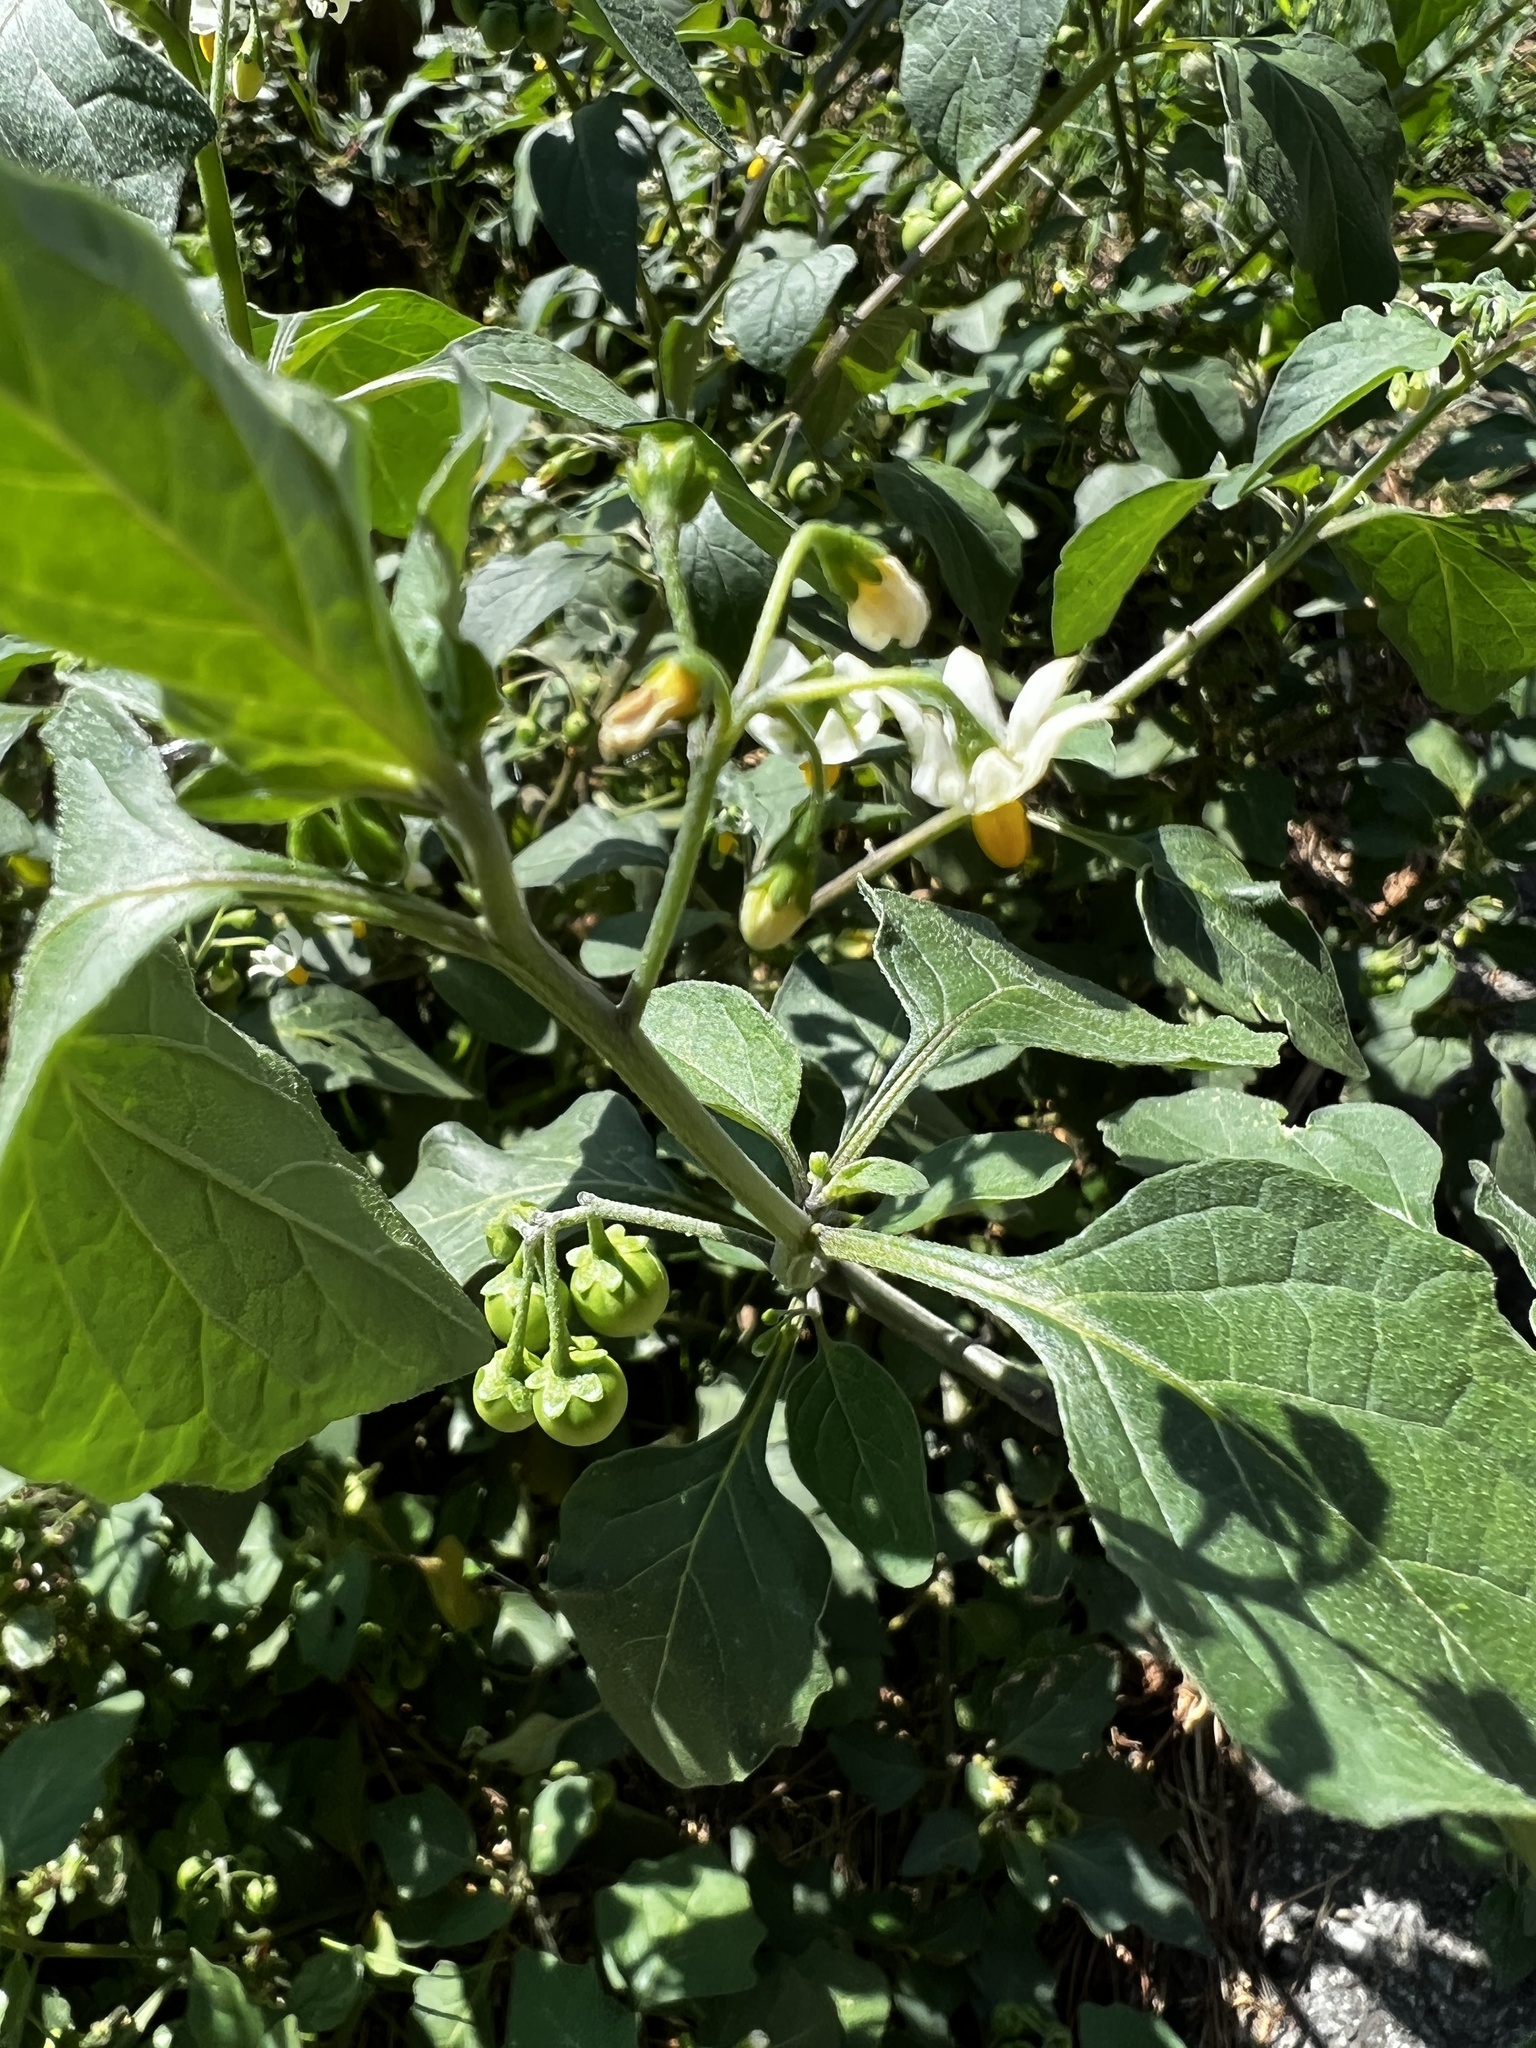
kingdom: Plantae
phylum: Tracheophyta
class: Magnoliopsida
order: Solanales
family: Solanaceae
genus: Solanum
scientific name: Solanum nigrum
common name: Black nightshade
